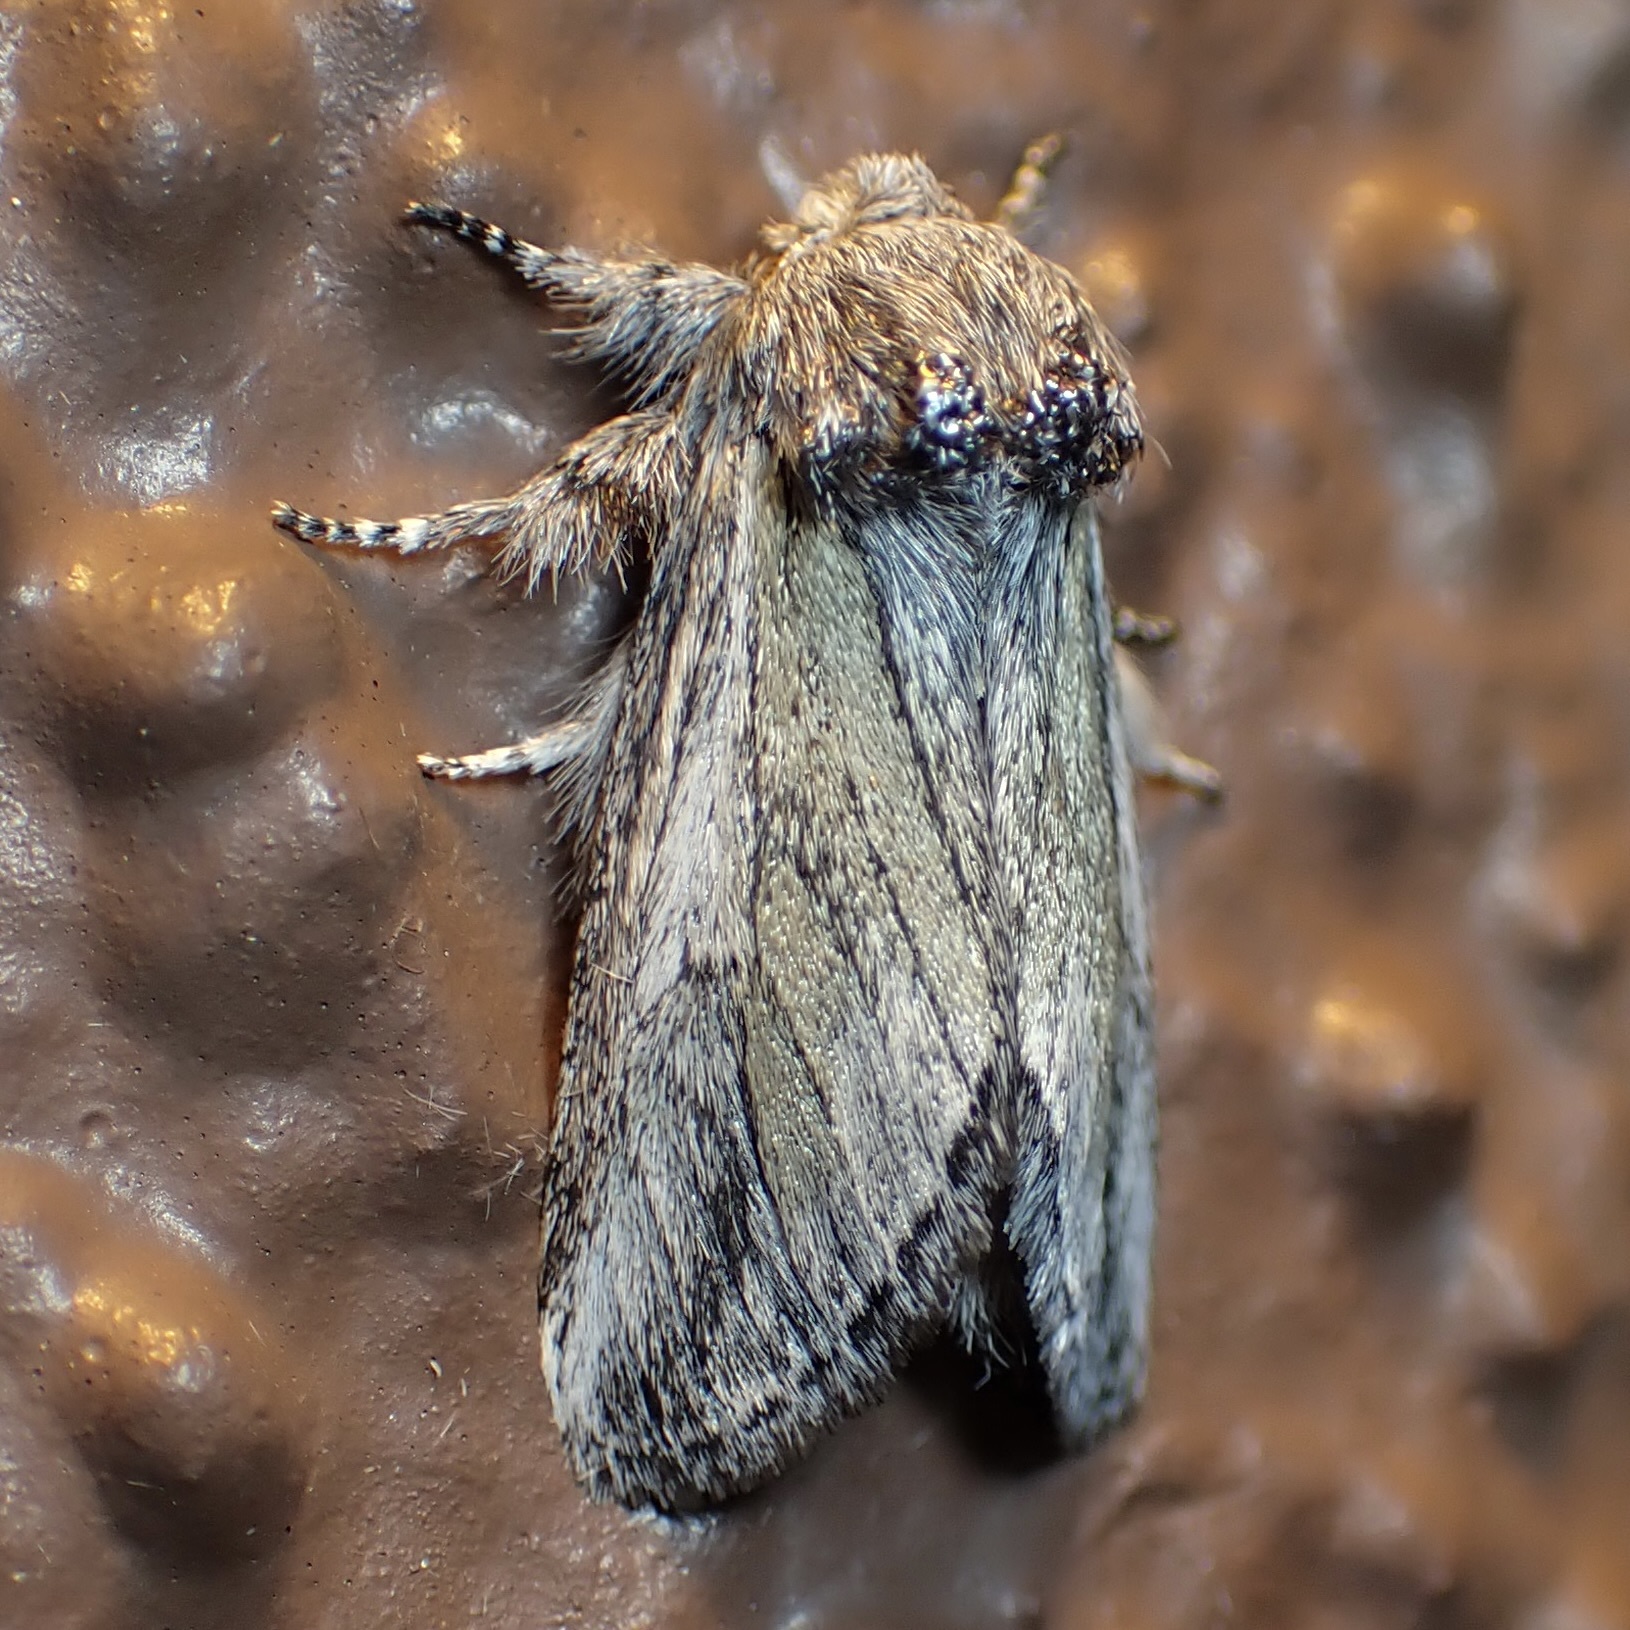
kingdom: Animalia
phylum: Arthropoda
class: Insecta
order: Lepidoptera
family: Notodontidae
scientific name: Notodontidae
